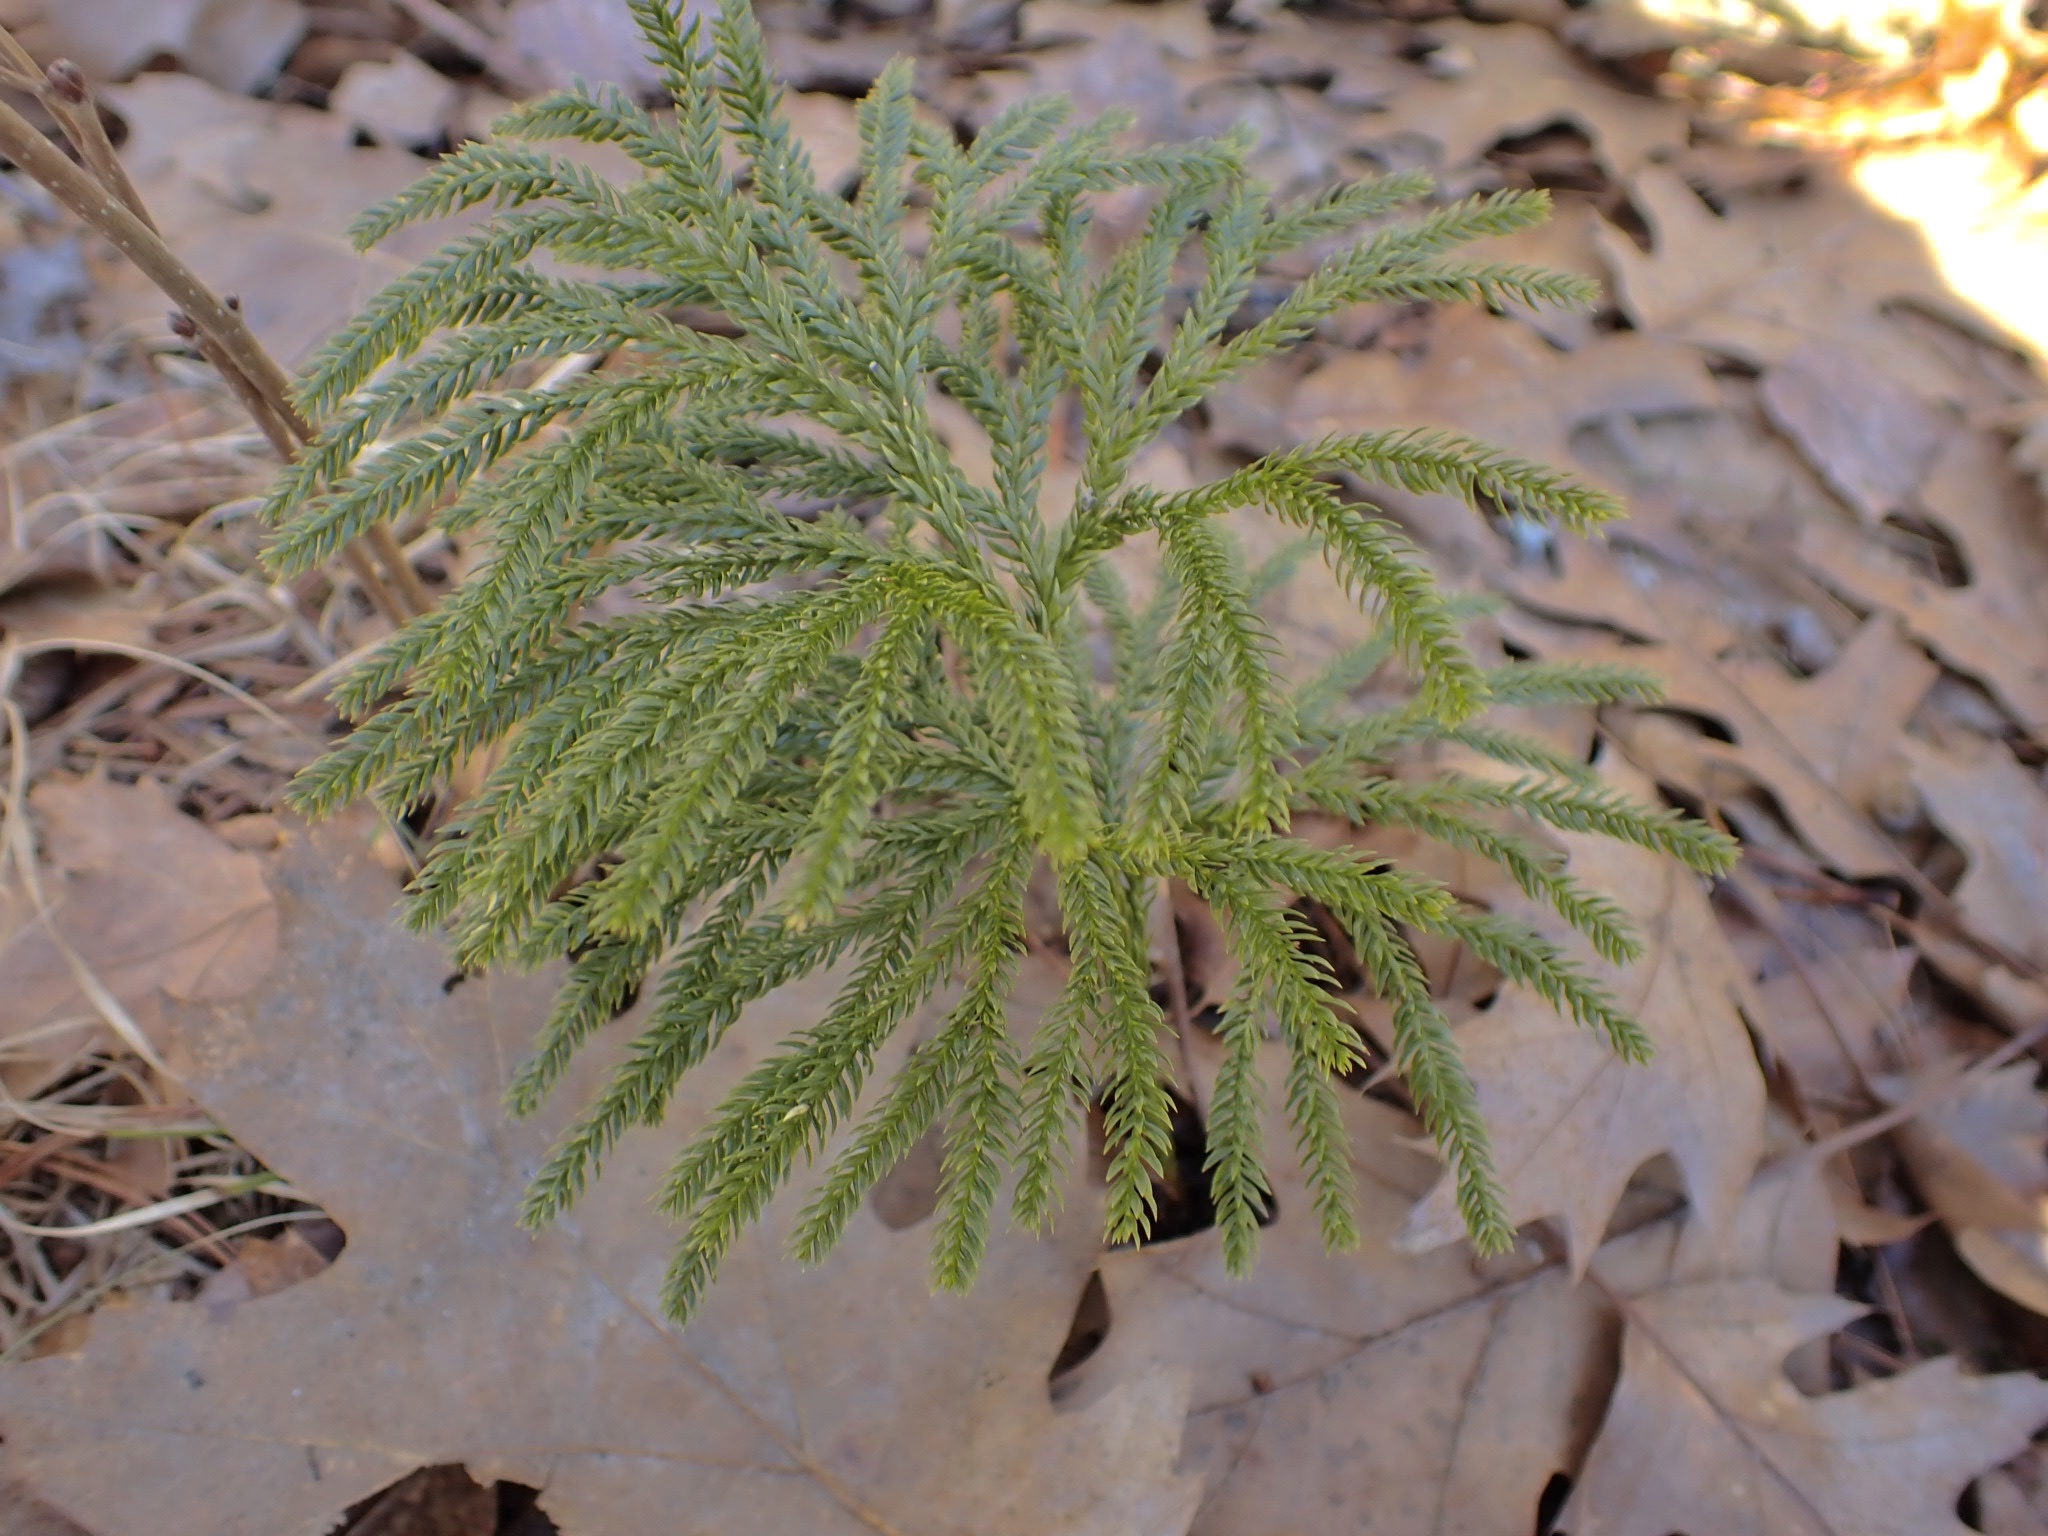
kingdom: Plantae
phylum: Tracheophyta
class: Lycopodiopsida
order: Lycopodiales
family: Lycopodiaceae
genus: Dendrolycopodium
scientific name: Dendrolycopodium obscurum
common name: Common ground-pine
